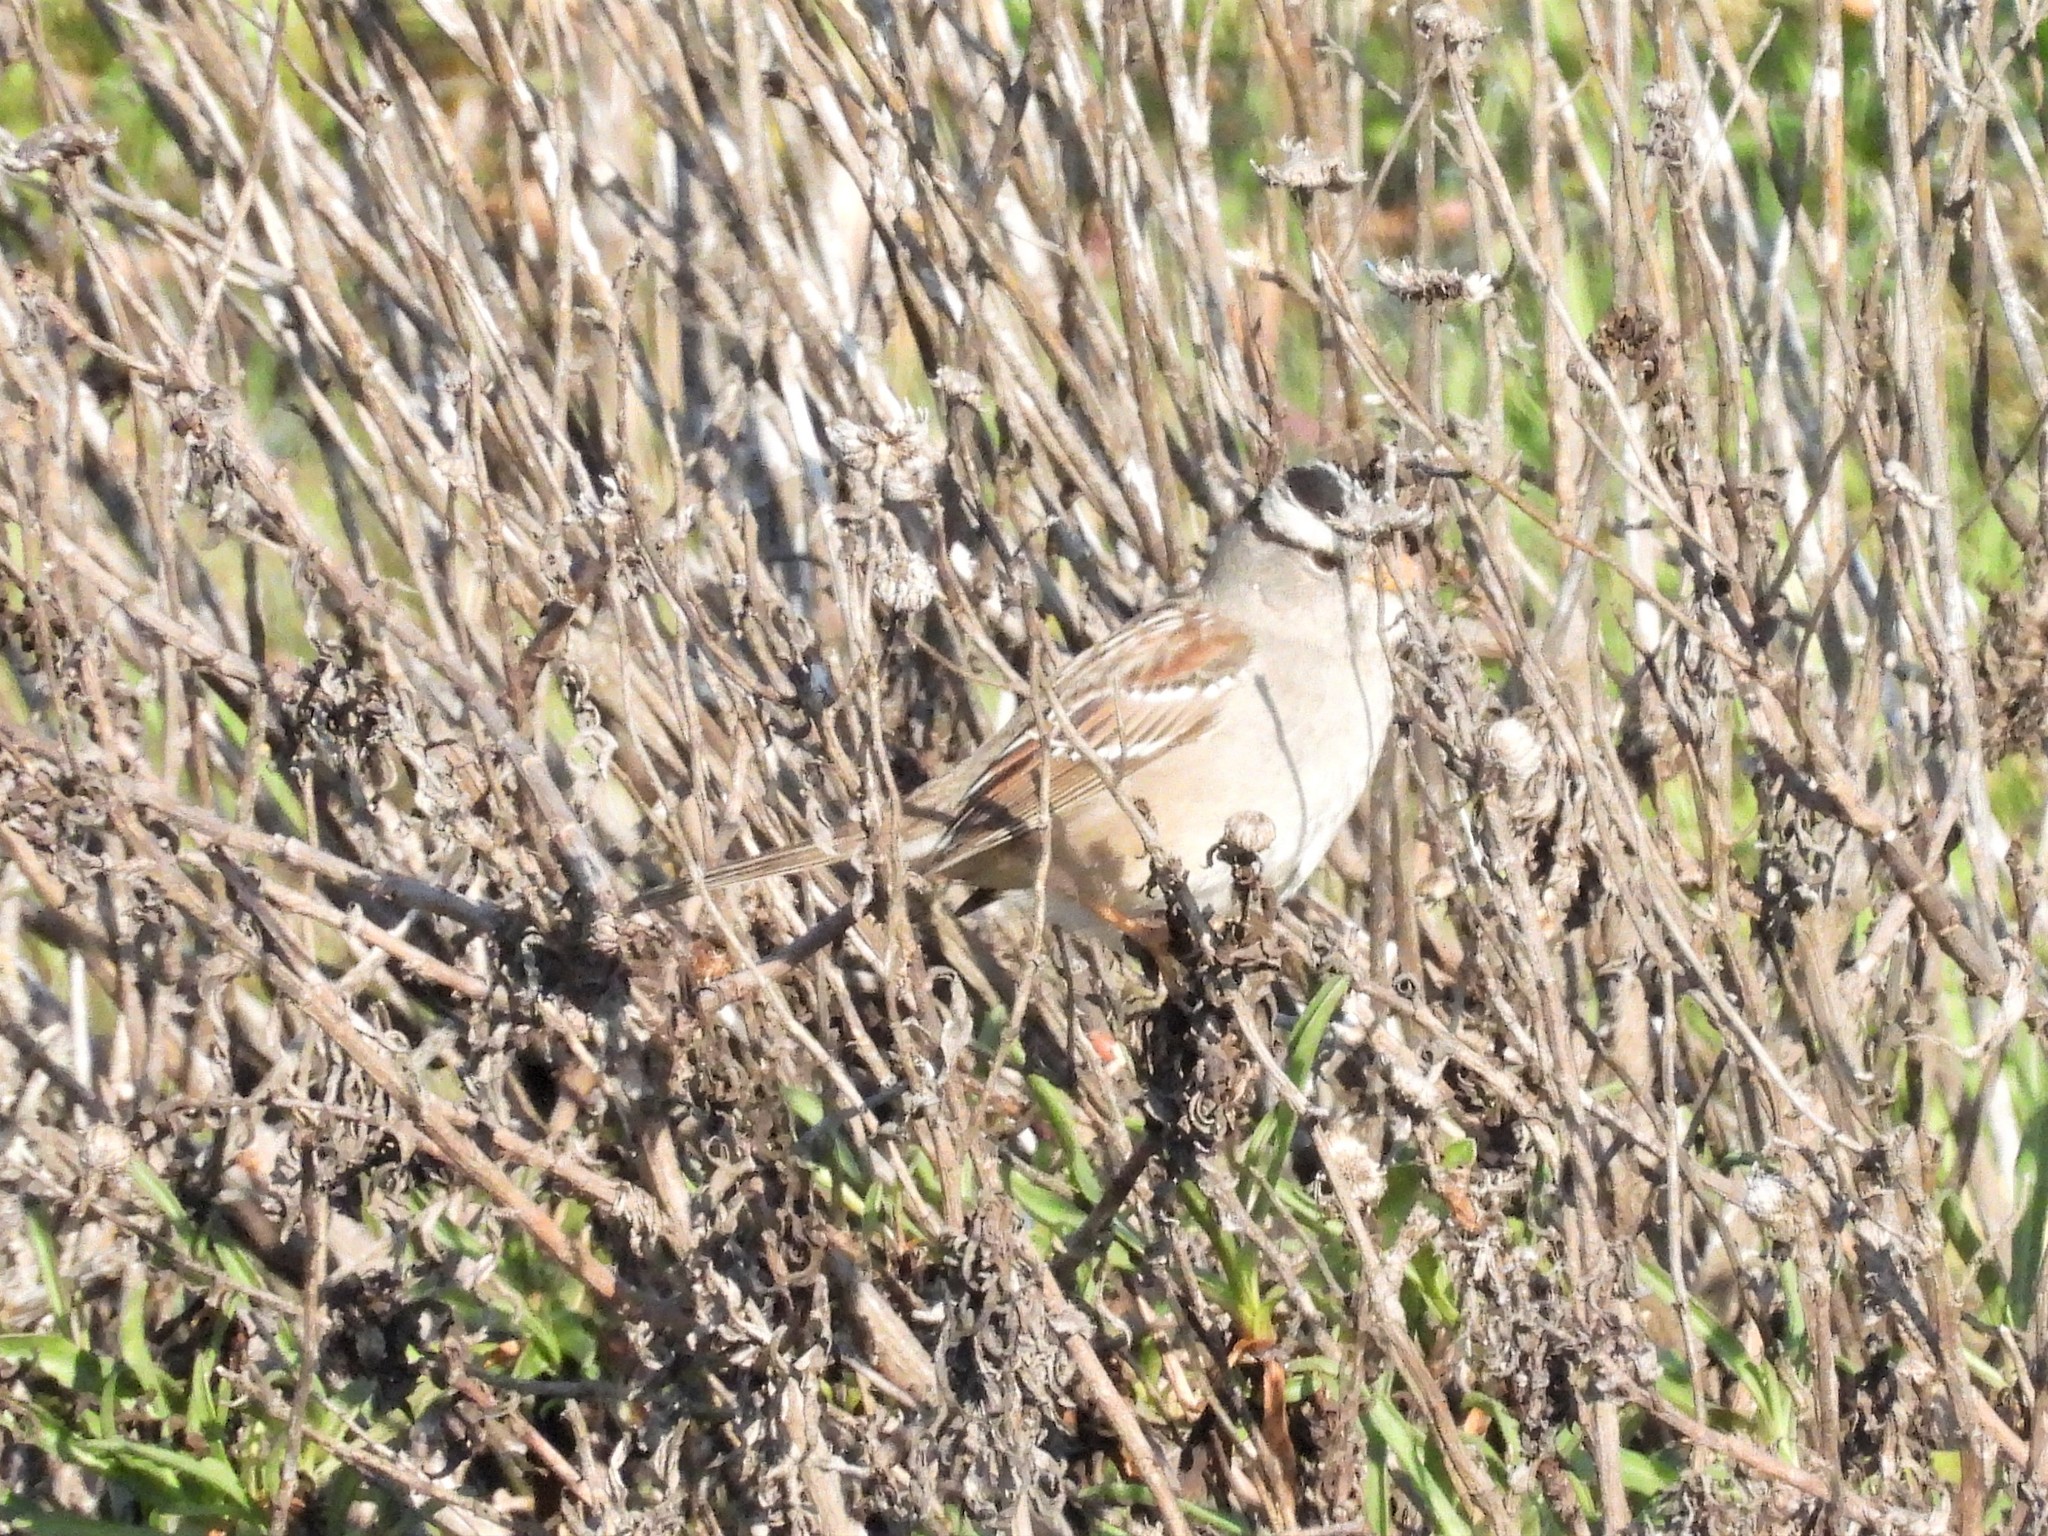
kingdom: Animalia
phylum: Chordata
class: Aves
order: Passeriformes
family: Passerellidae
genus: Zonotrichia
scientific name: Zonotrichia leucophrys
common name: White-crowned sparrow
